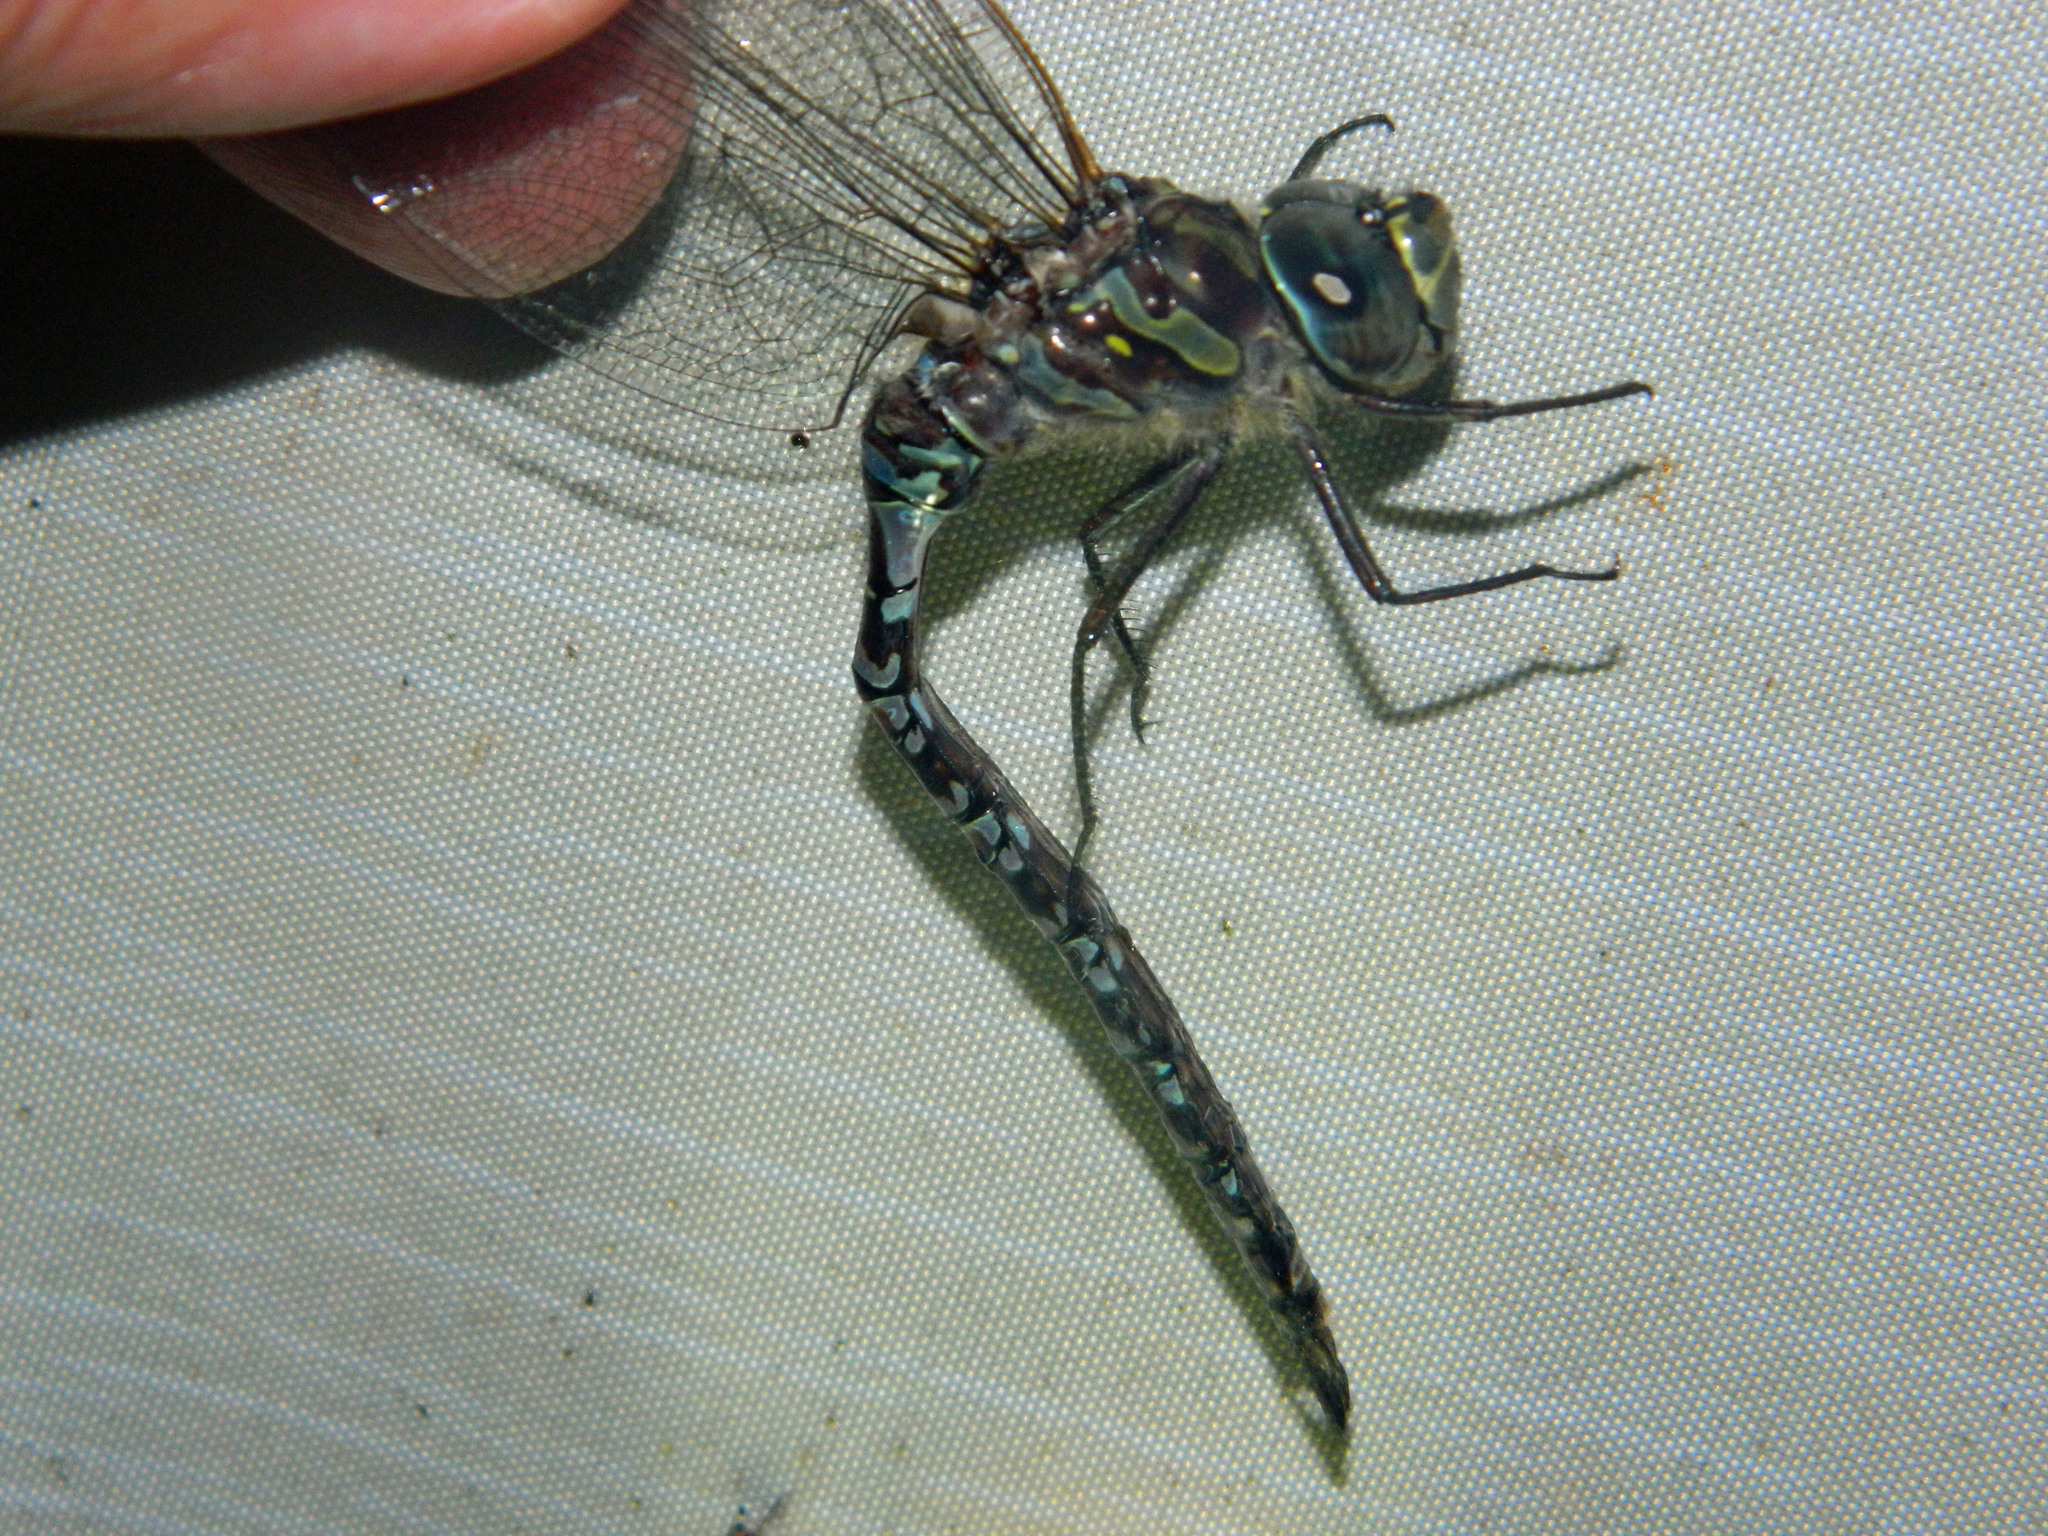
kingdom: Animalia
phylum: Arthropoda
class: Insecta
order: Odonata
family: Aeshnidae
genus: Aeshna
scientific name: Aeshna canadensis
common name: Canada darner
